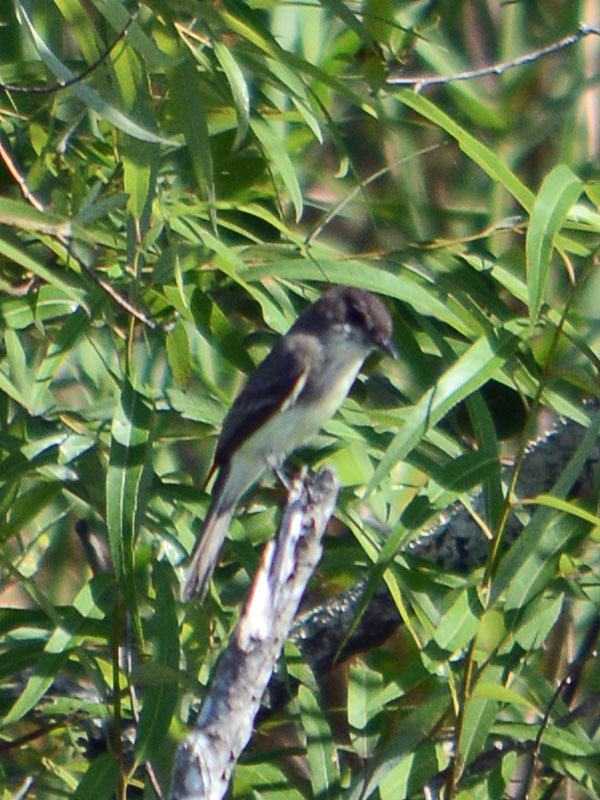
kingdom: Animalia
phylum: Chordata
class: Aves
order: Passeriformes
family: Tyrannidae
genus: Sayornis
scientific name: Sayornis phoebe
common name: Eastern phoebe
